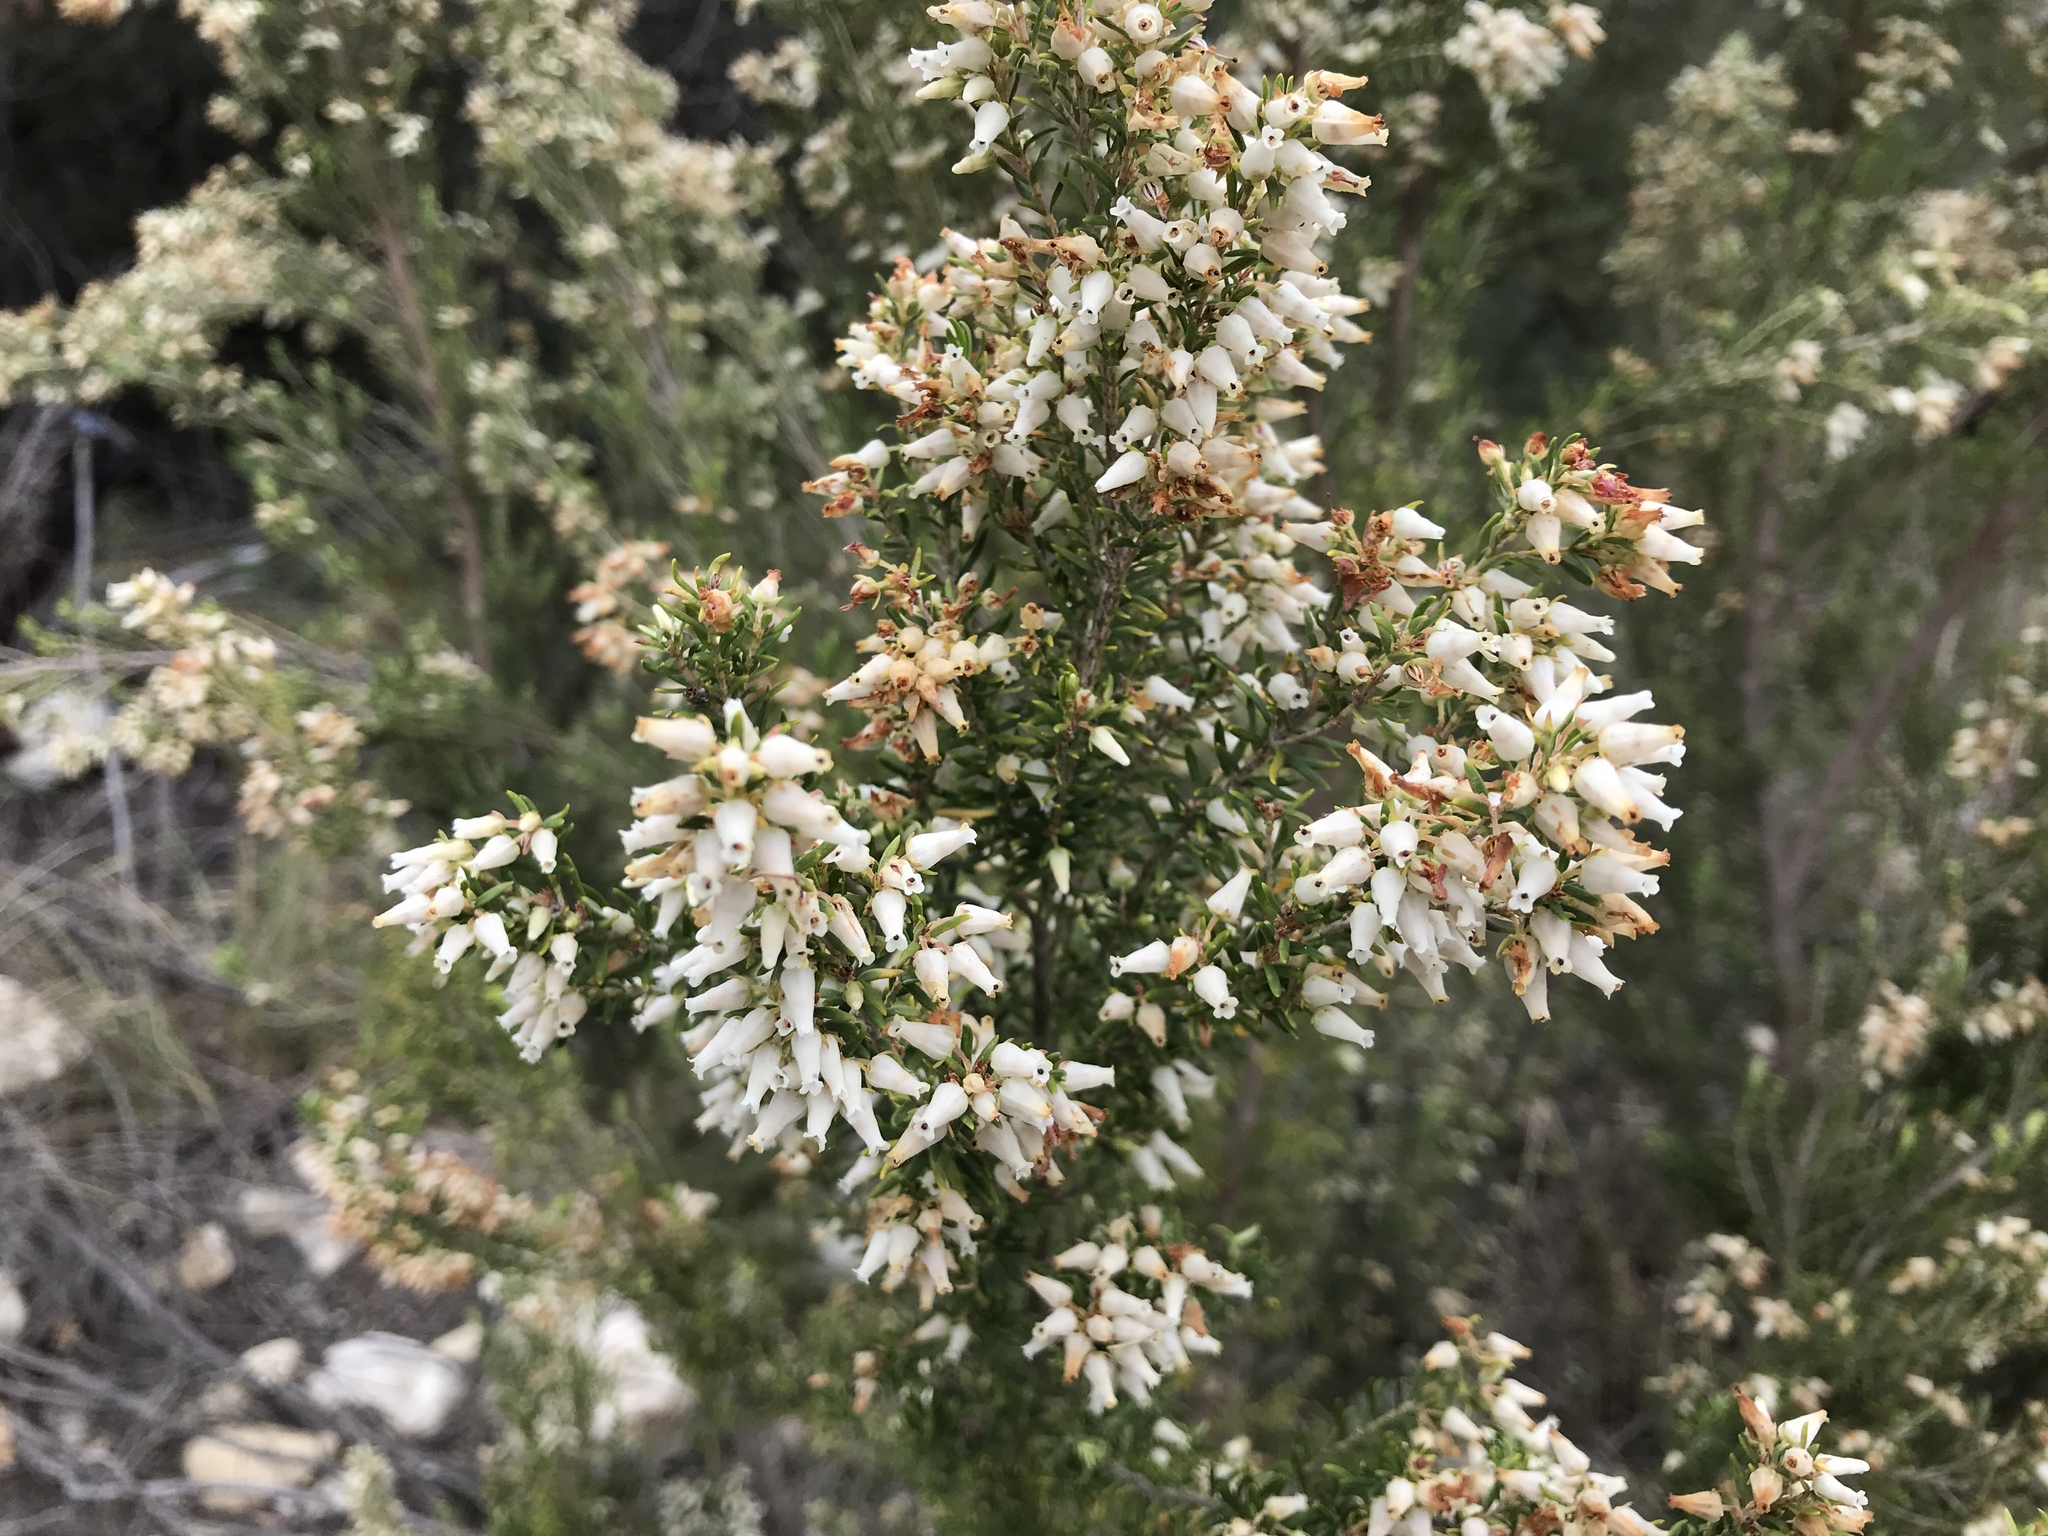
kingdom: Plantae
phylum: Tracheophyta
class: Magnoliopsida
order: Ericales
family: Ericaceae
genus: Erica
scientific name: Erica caffra
